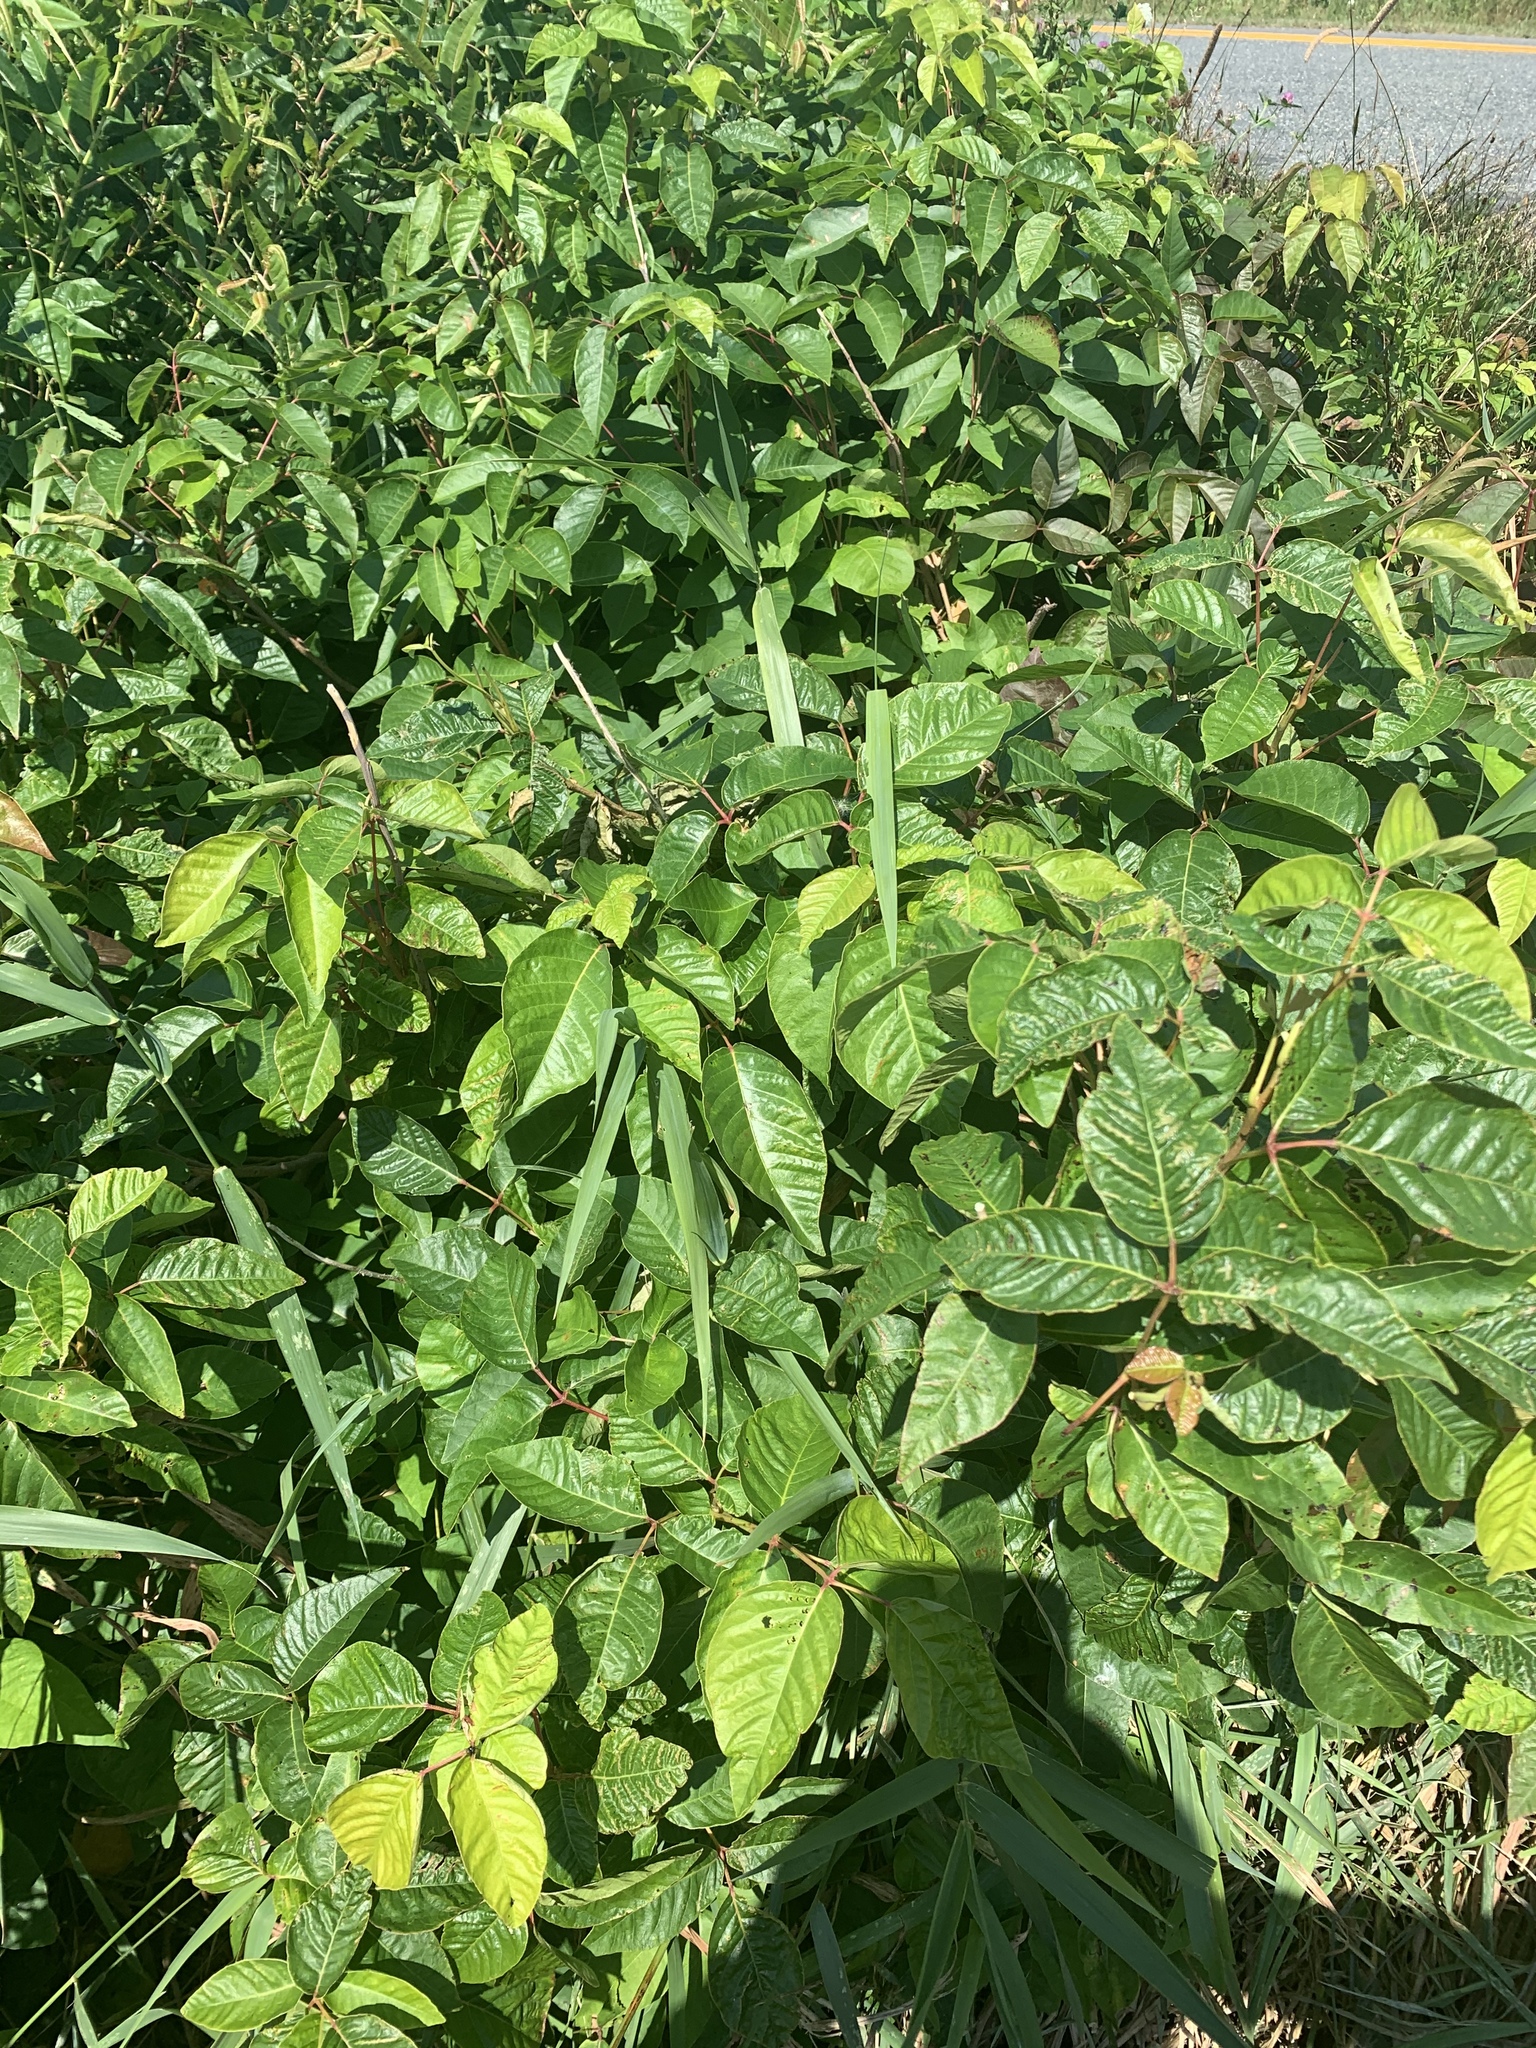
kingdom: Plantae
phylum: Tracheophyta
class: Magnoliopsida
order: Sapindales
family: Anacardiaceae
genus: Toxicodendron
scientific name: Toxicodendron radicans
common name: Poison ivy
